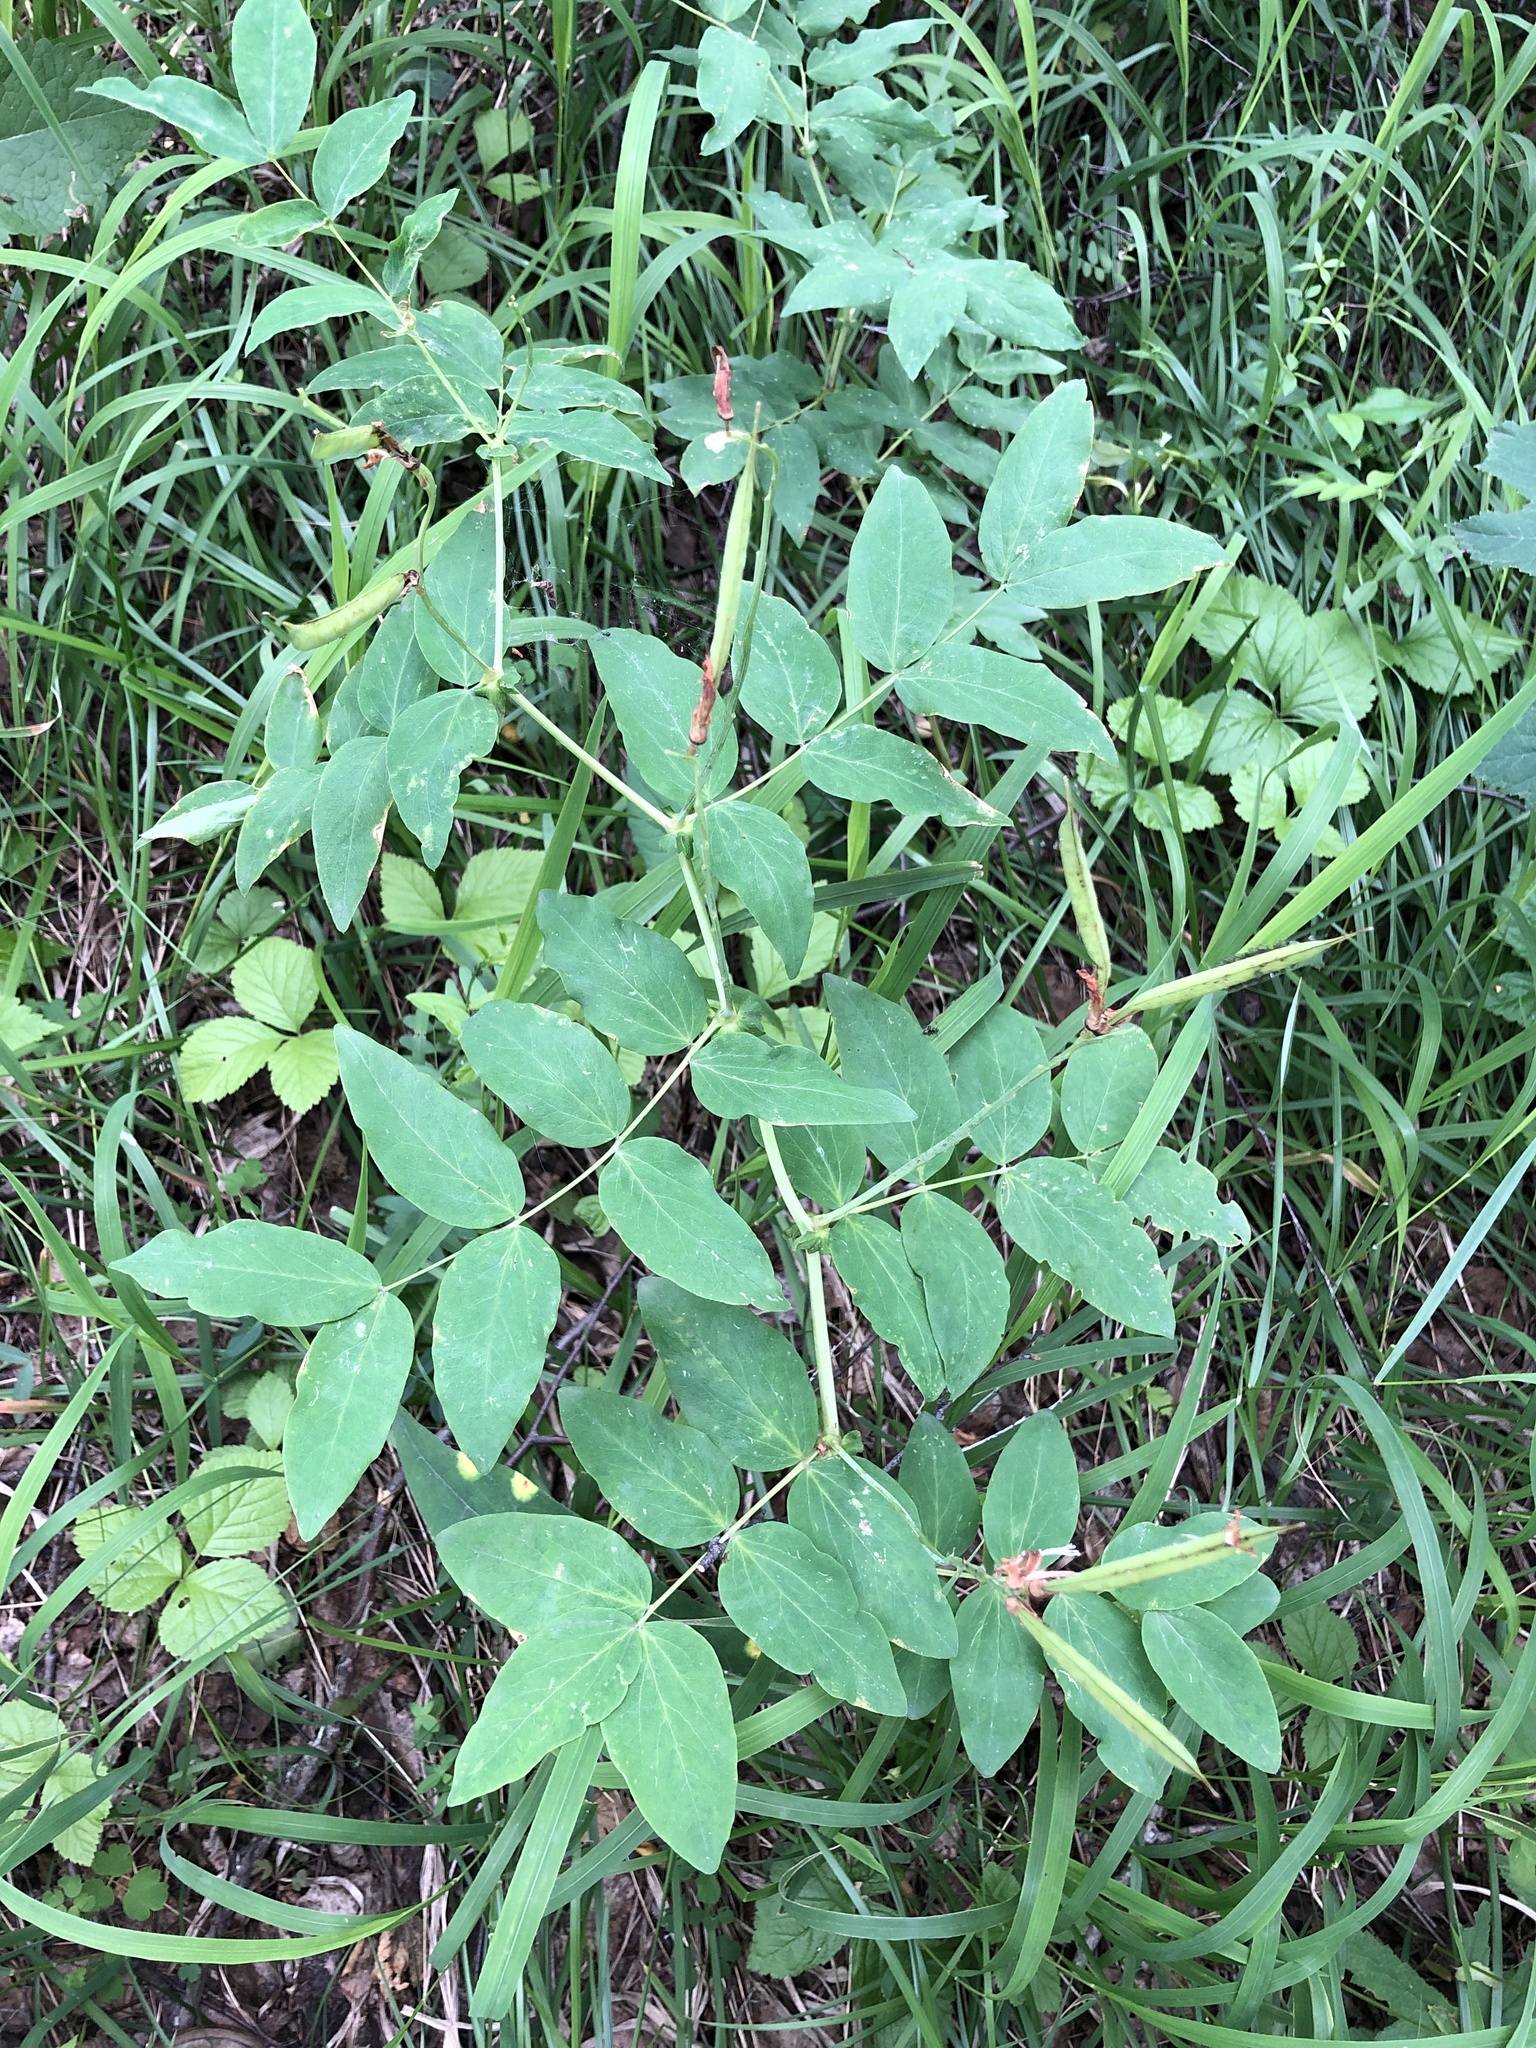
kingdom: Plantae
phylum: Tracheophyta
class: Magnoliopsida
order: Fabales
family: Fabaceae
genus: Lathyrus
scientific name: Lathyrus gmelinii
